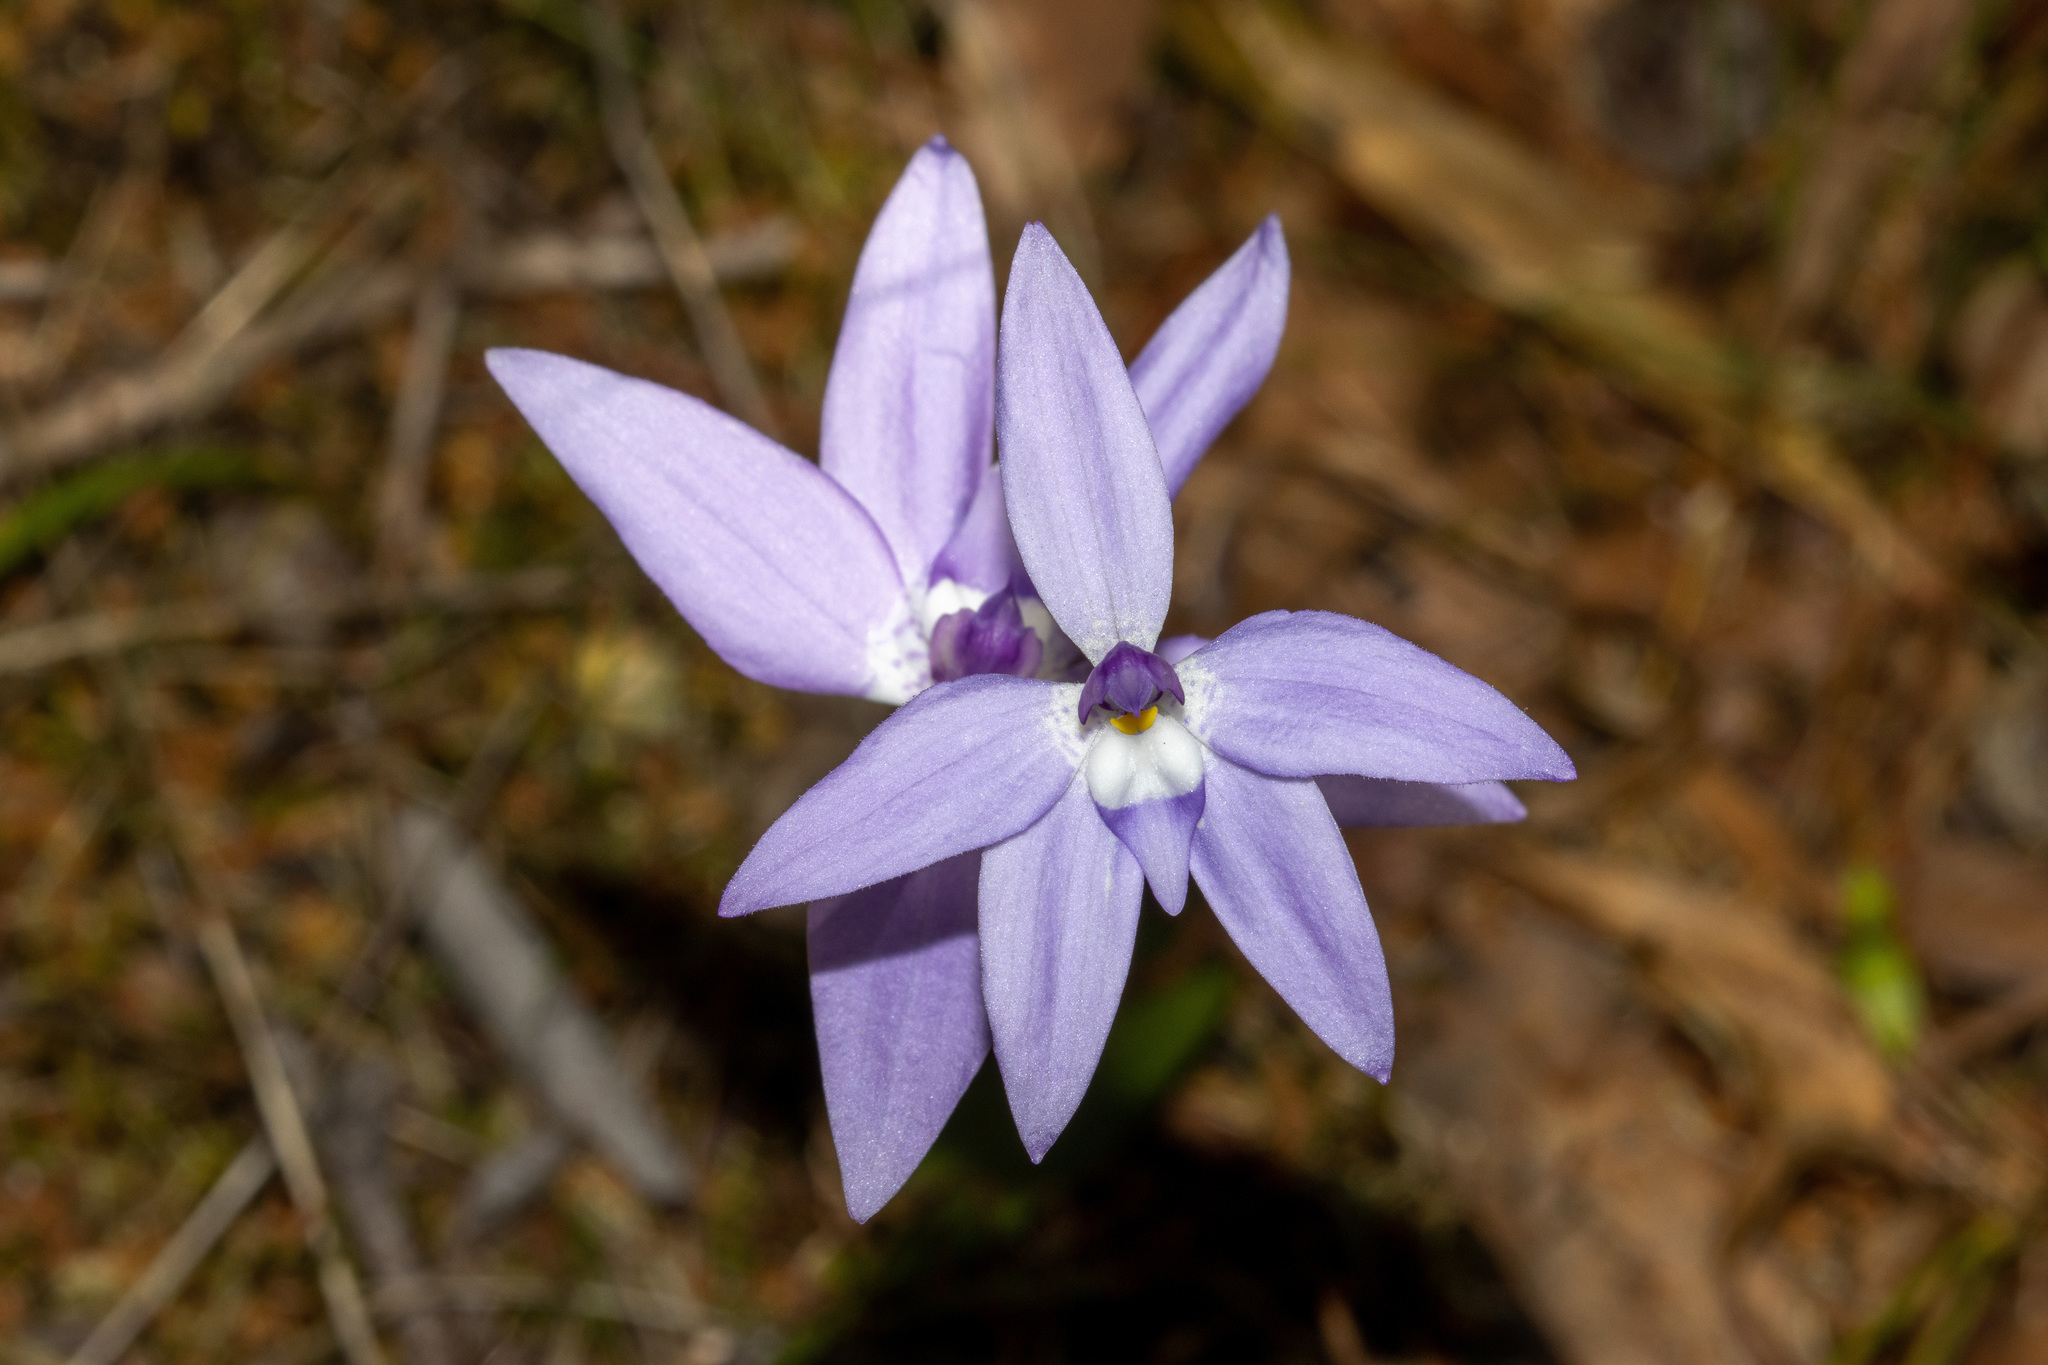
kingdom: Plantae
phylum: Tracheophyta
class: Liliopsida
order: Asparagales
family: Orchidaceae
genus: Caladenia
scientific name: Caladenia major
